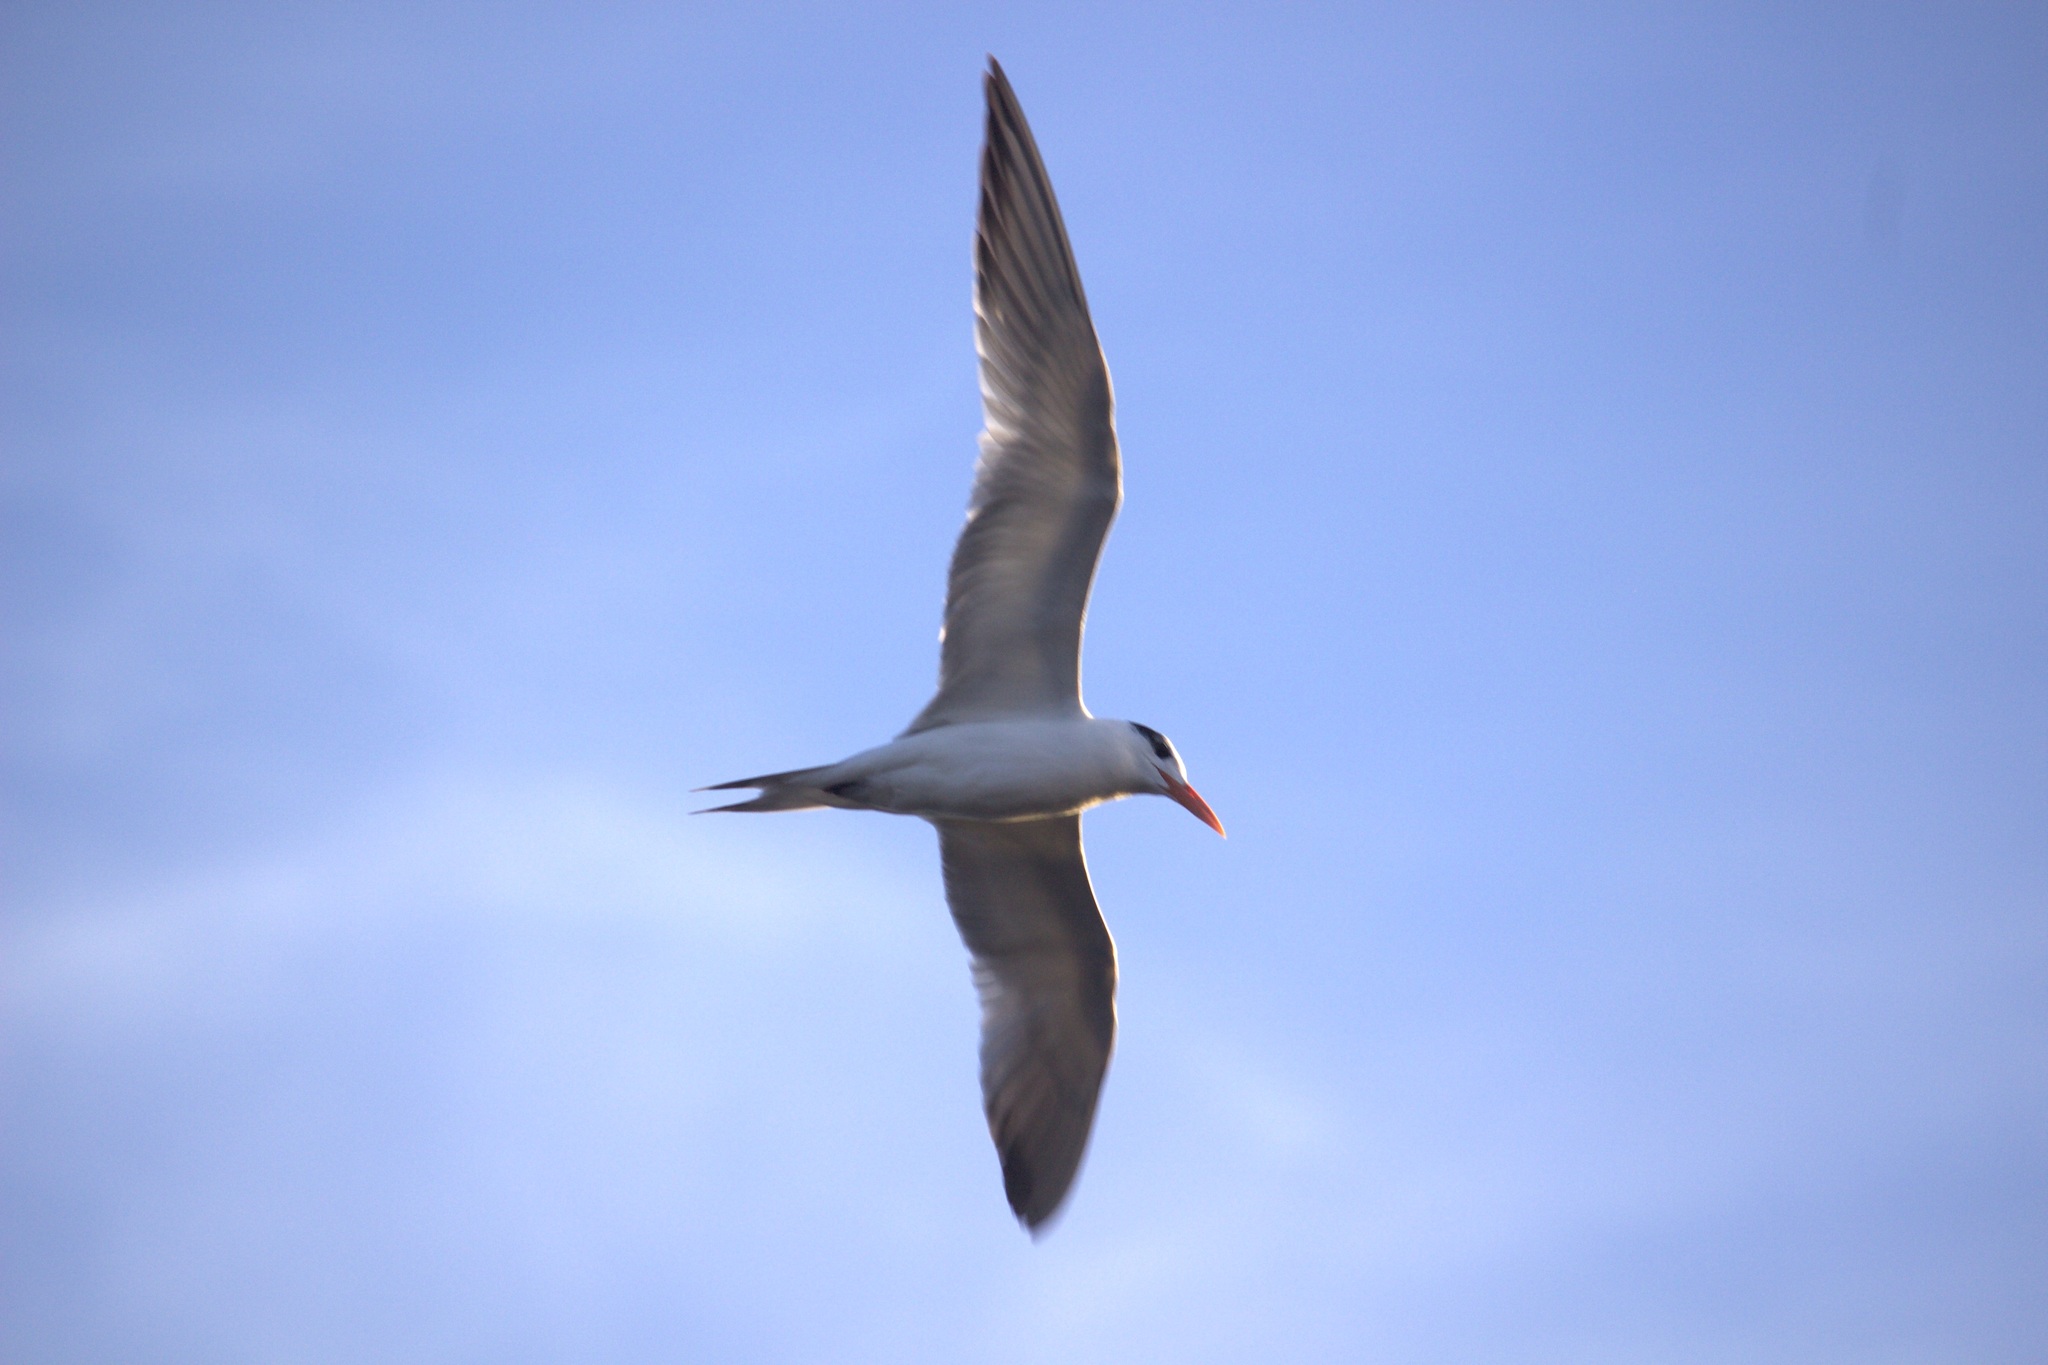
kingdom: Animalia
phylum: Chordata
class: Aves
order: Charadriiformes
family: Laridae
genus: Thalasseus
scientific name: Thalasseus maximus
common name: Royal tern
